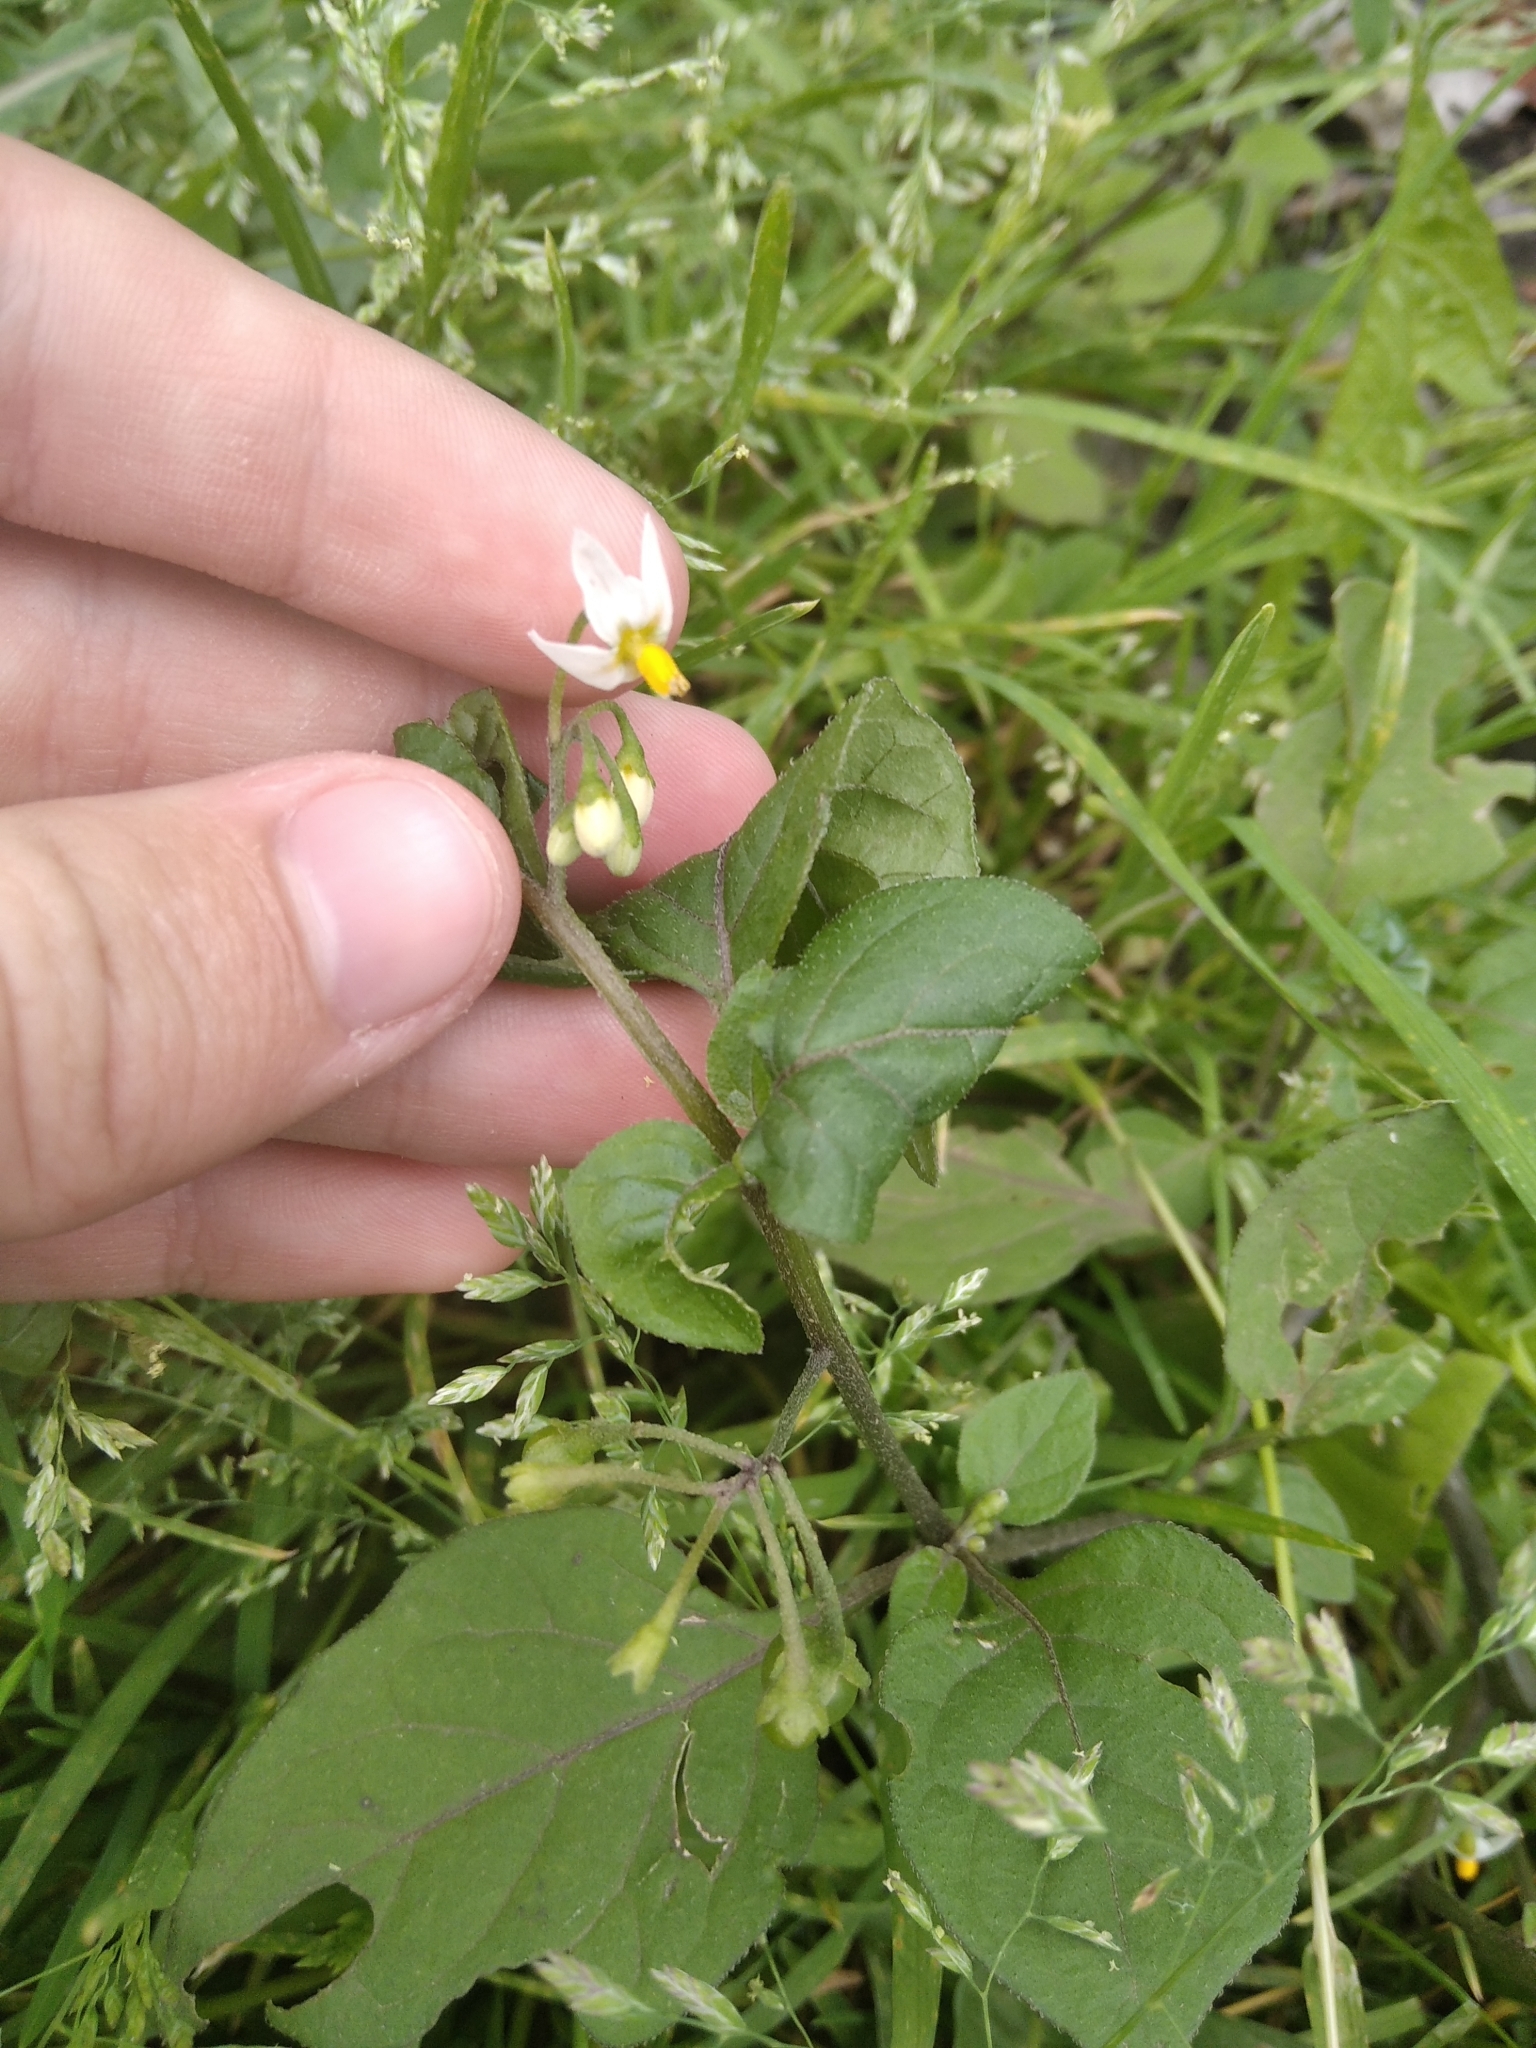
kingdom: Plantae
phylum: Tracheophyta
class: Magnoliopsida
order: Solanales
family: Solanaceae
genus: Solanum
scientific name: Solanum nigrum
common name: Black nightshade
